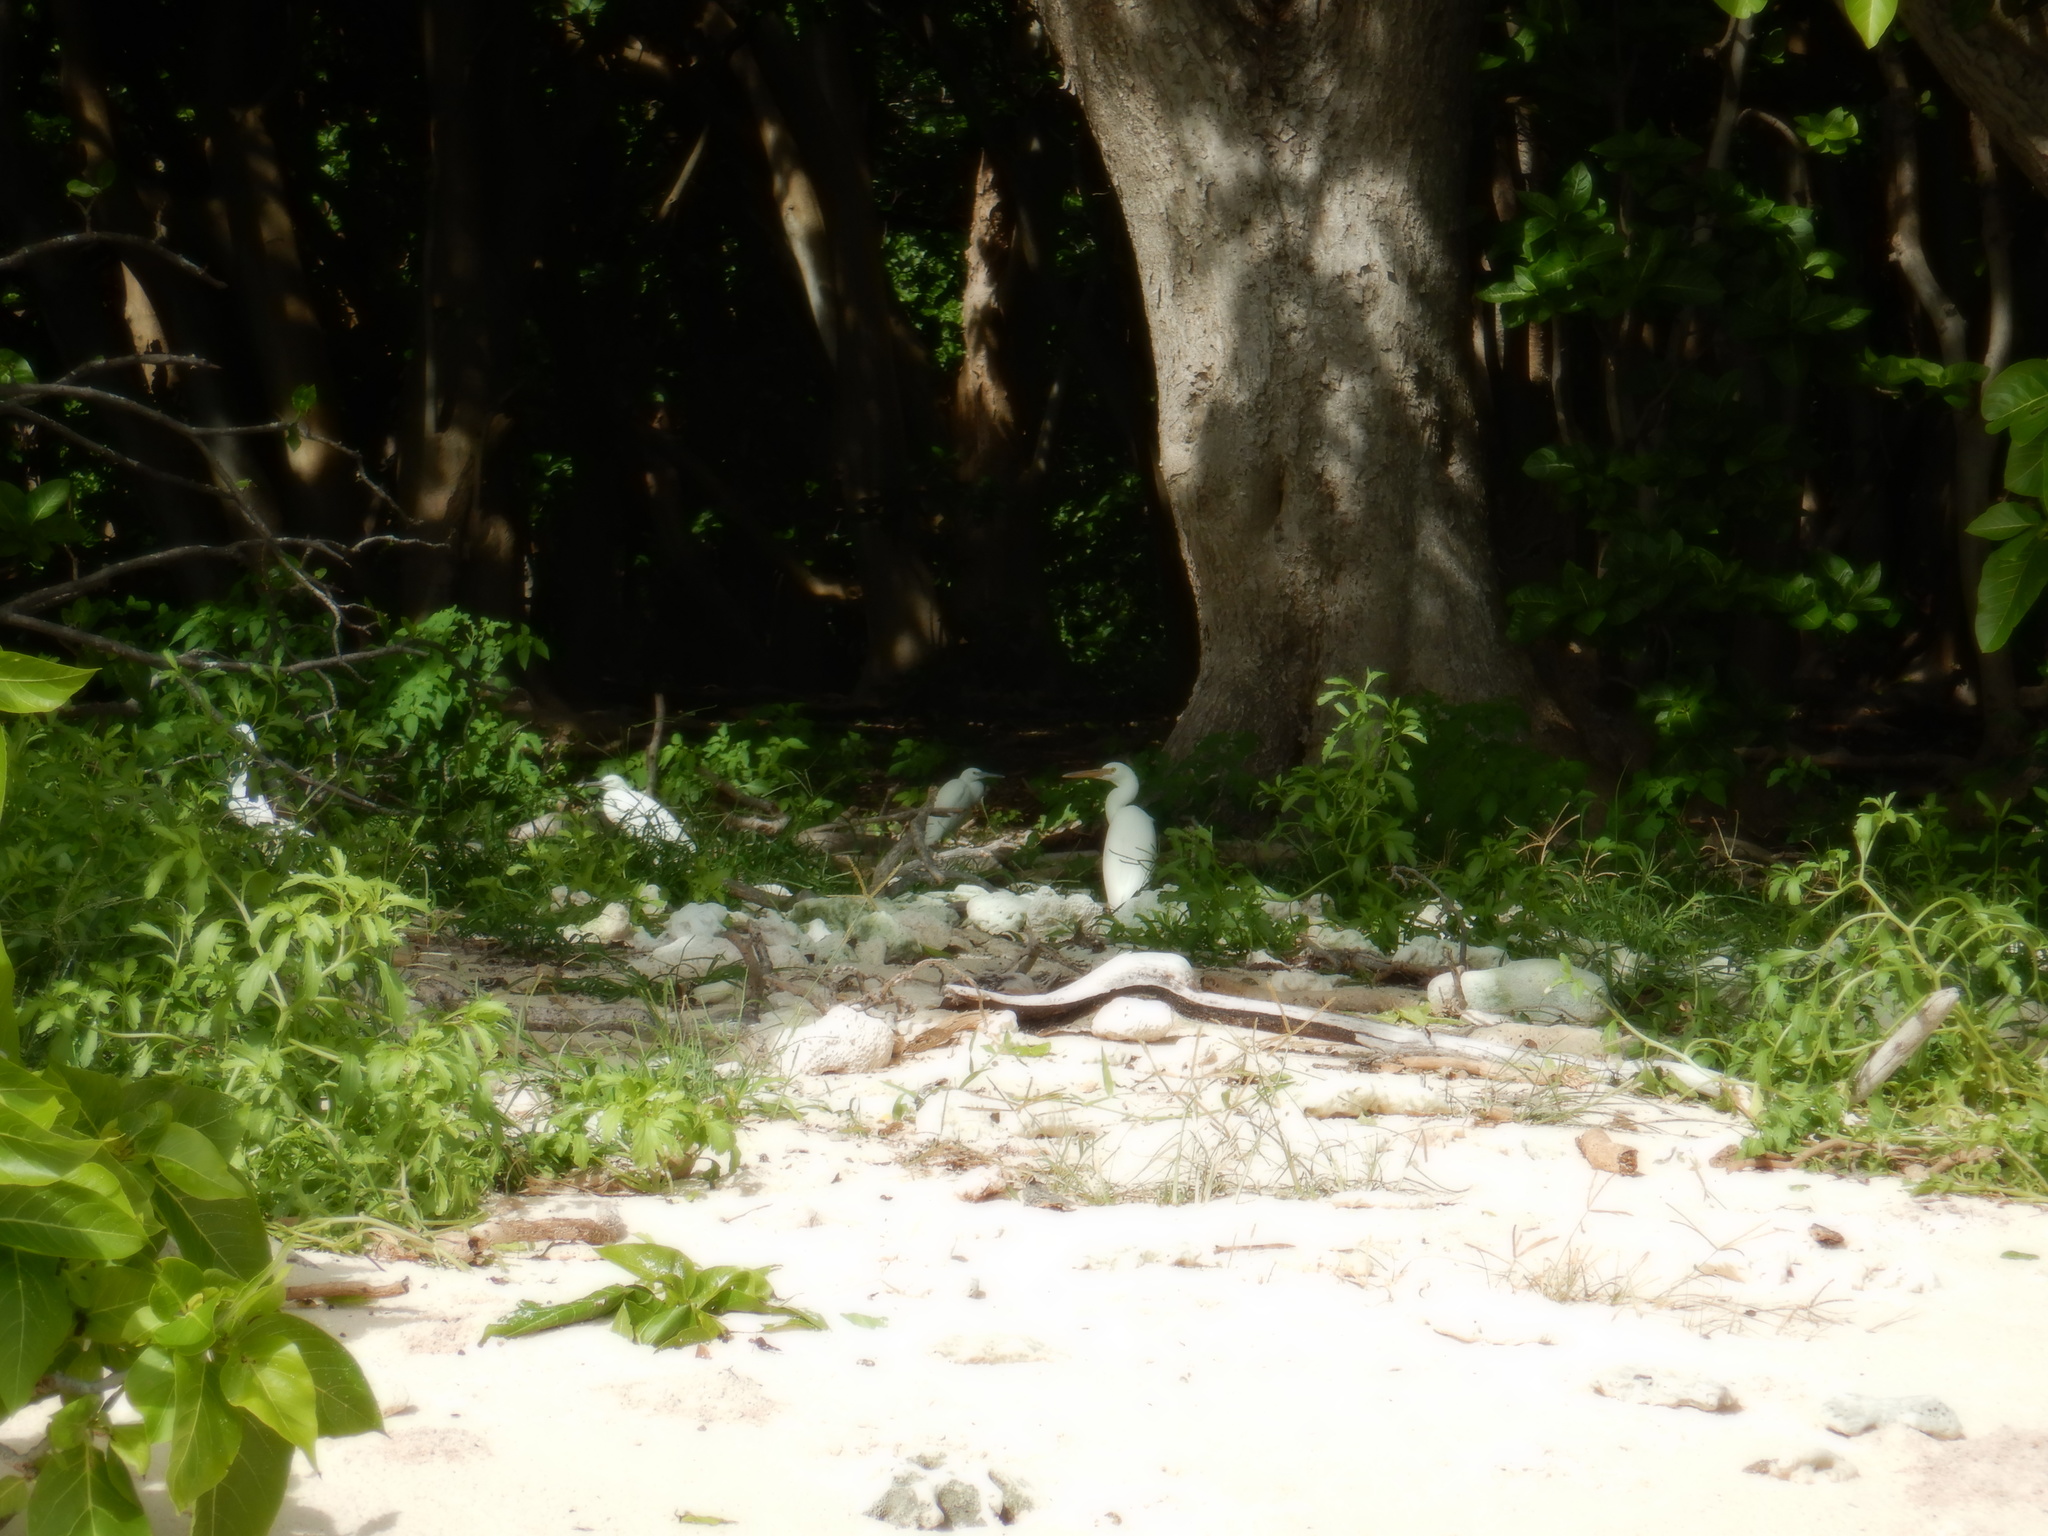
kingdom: Animalia
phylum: Chordata
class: Aves
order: Pelecaniformes
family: Ardeidae
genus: Egretta
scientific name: Egretta sacra
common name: Pacific reef heron
